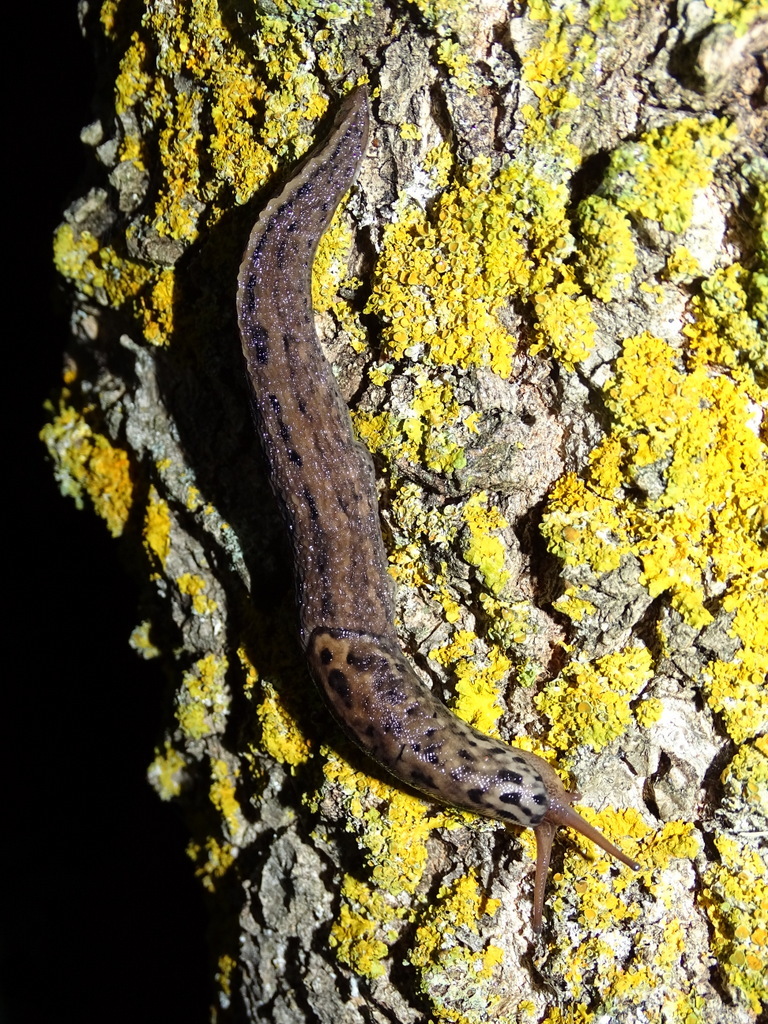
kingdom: Animalia
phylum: Mollusca
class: Gastropoda
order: Stylommatophora
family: Limacidae
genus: Limax
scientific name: Limax maximus
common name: Great grey slug
